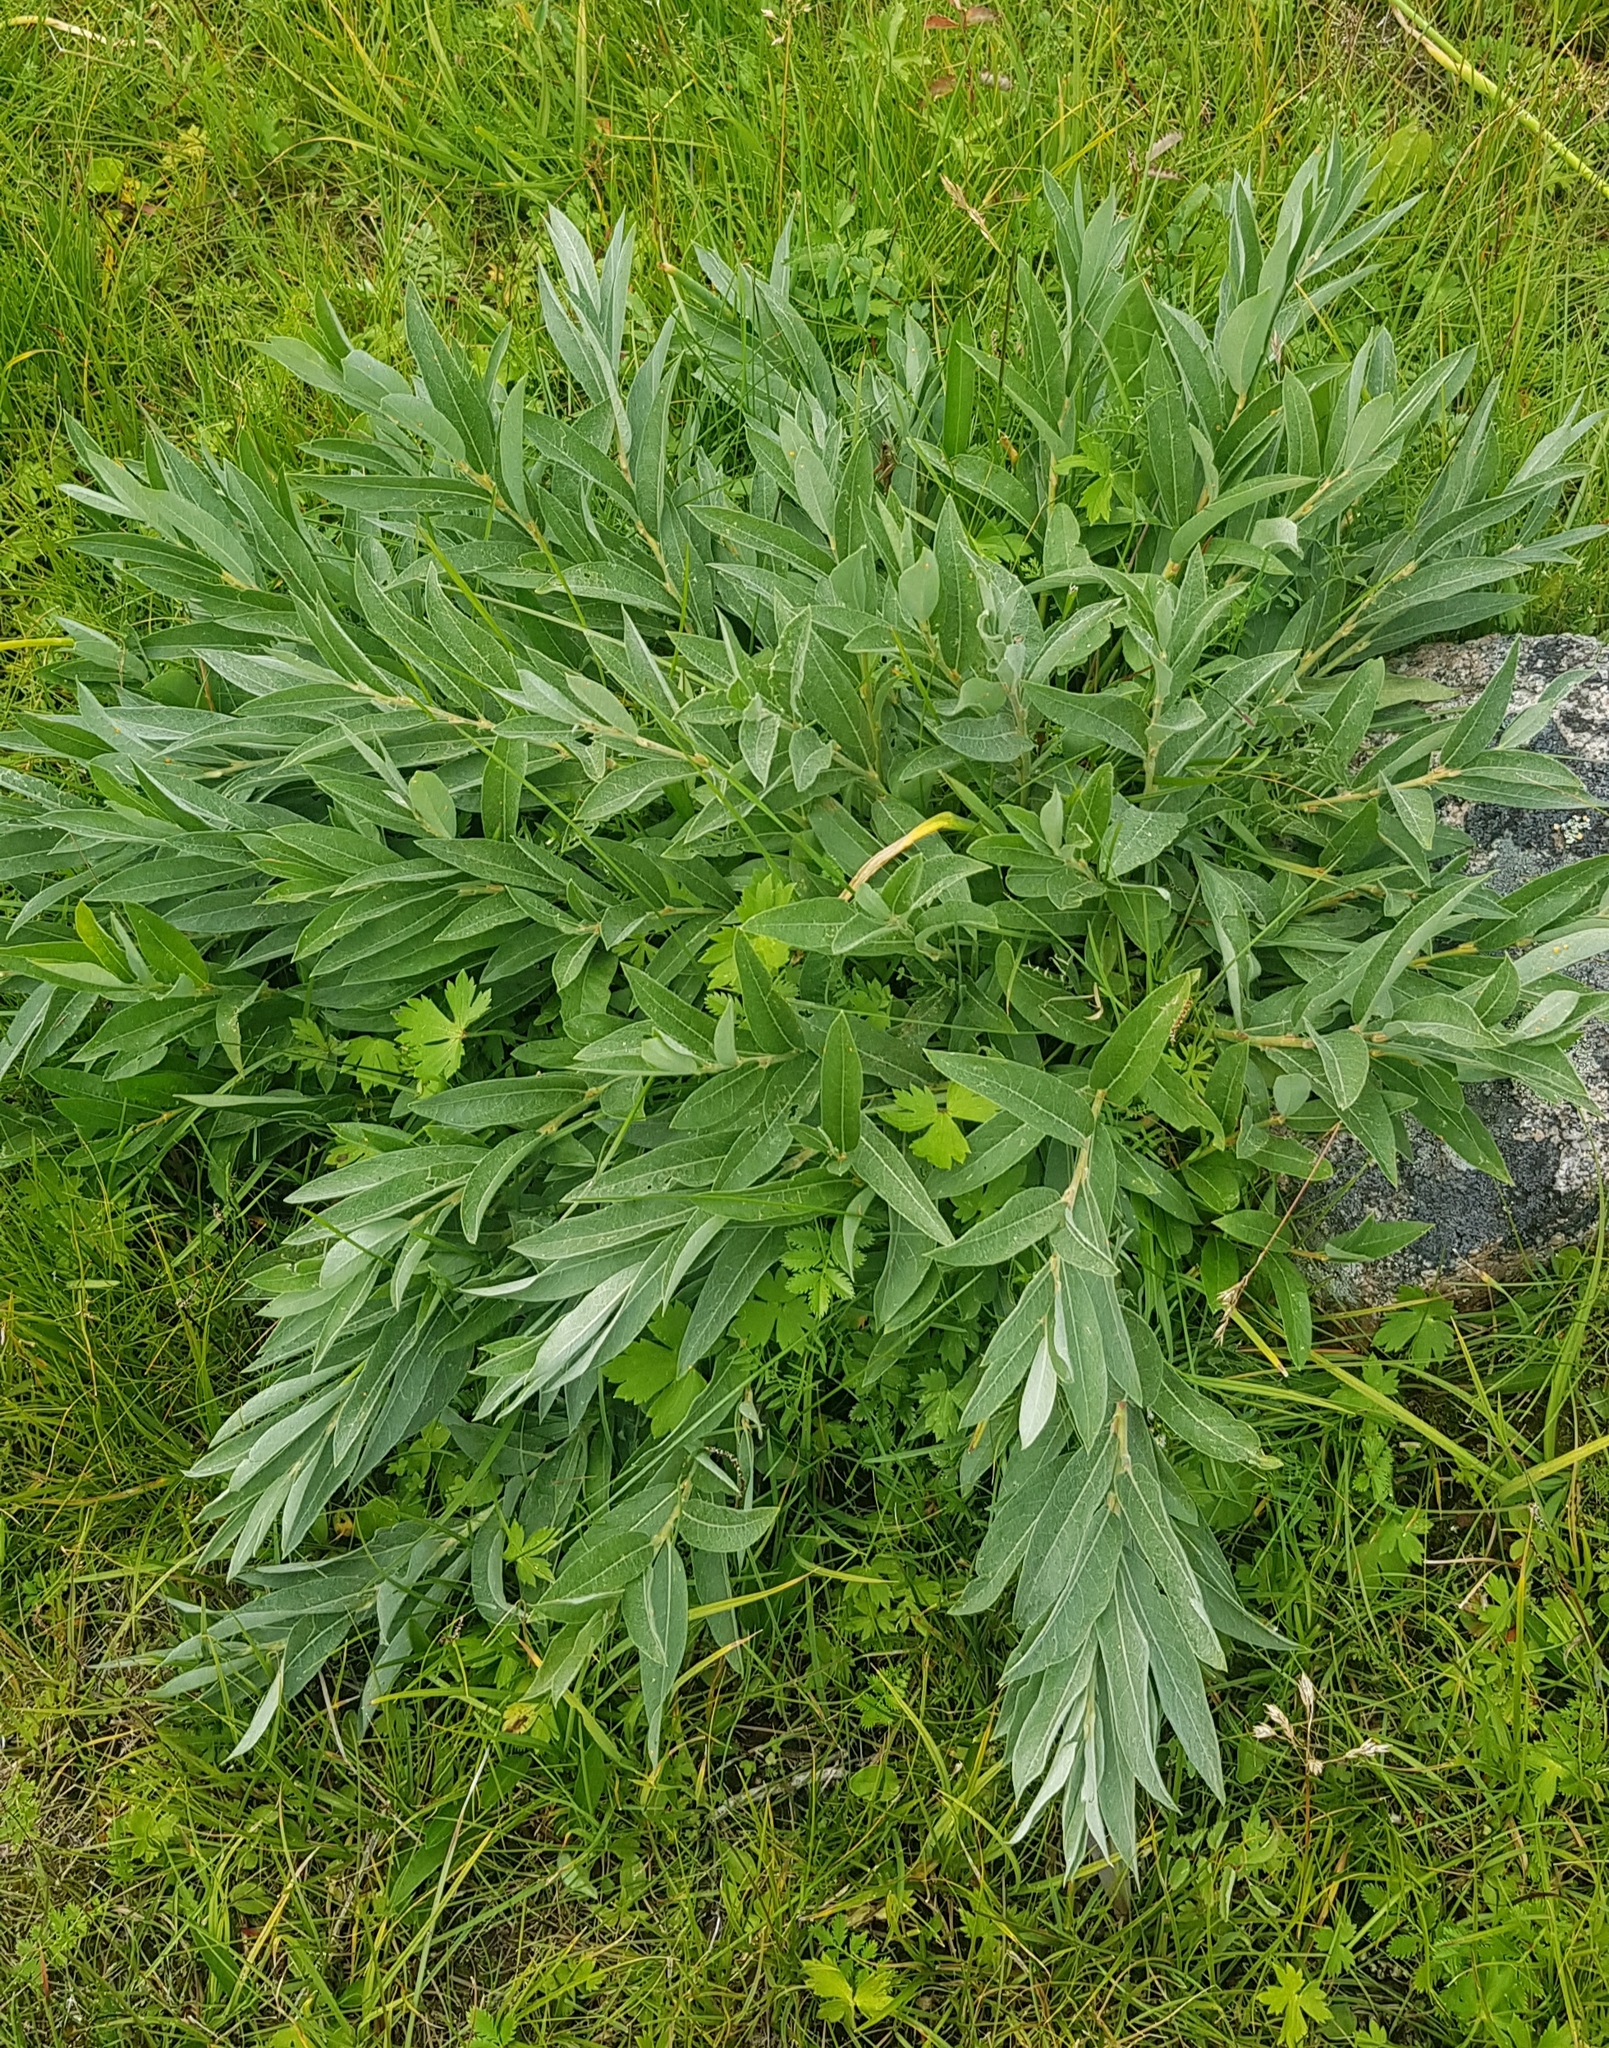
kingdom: Plantae
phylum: Tracheophyta
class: Magnoliopsida
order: Malpighiales
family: Salicaceae
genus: Salix
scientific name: Salix glauca
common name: Glaucous willow
